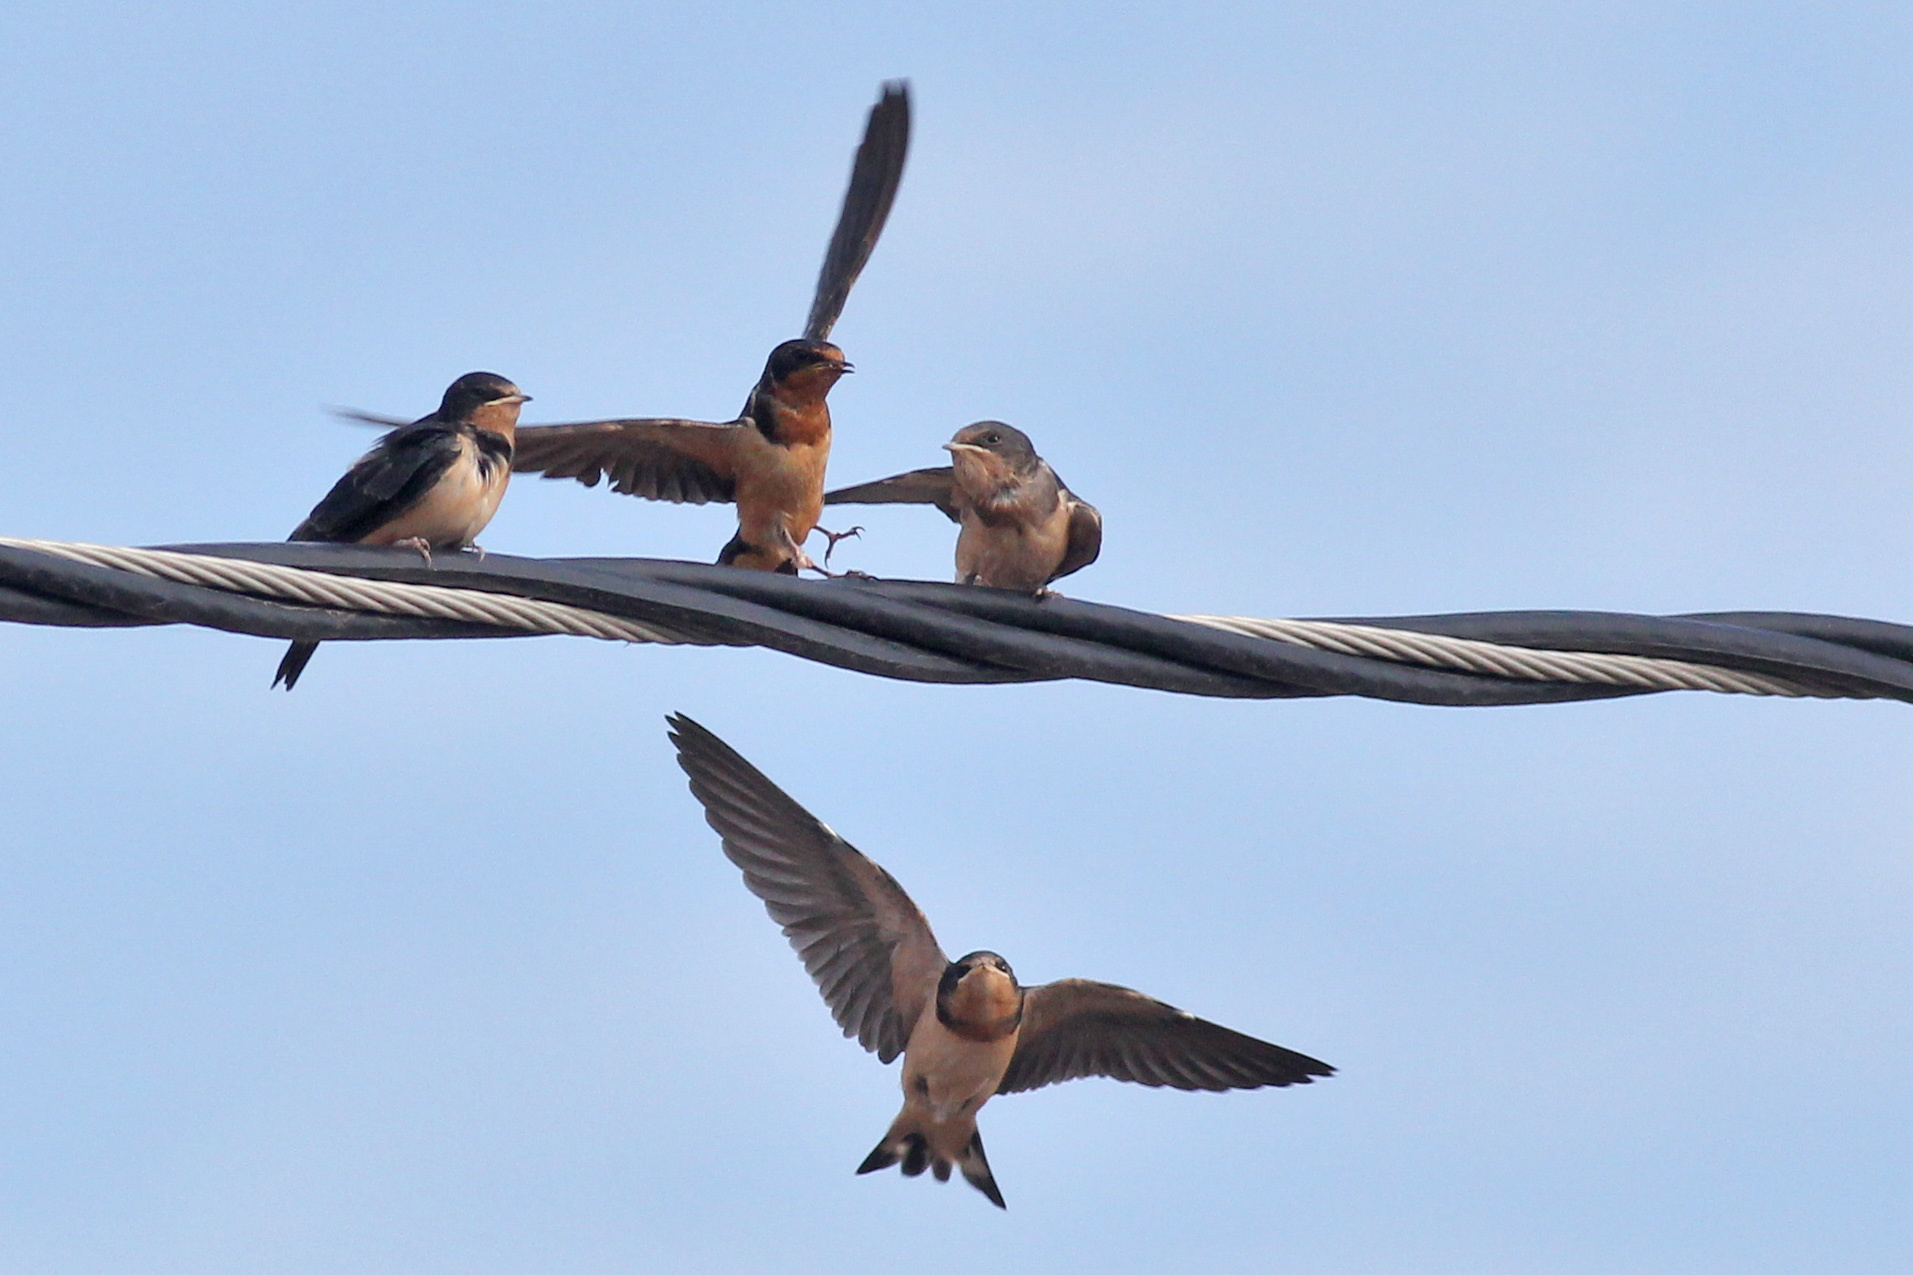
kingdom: Animalia
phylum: Chordata
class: Aves
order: Passeriformes
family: Hirundinidae
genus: Hirundo
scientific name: Hirundo rustica
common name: Barn swallow
